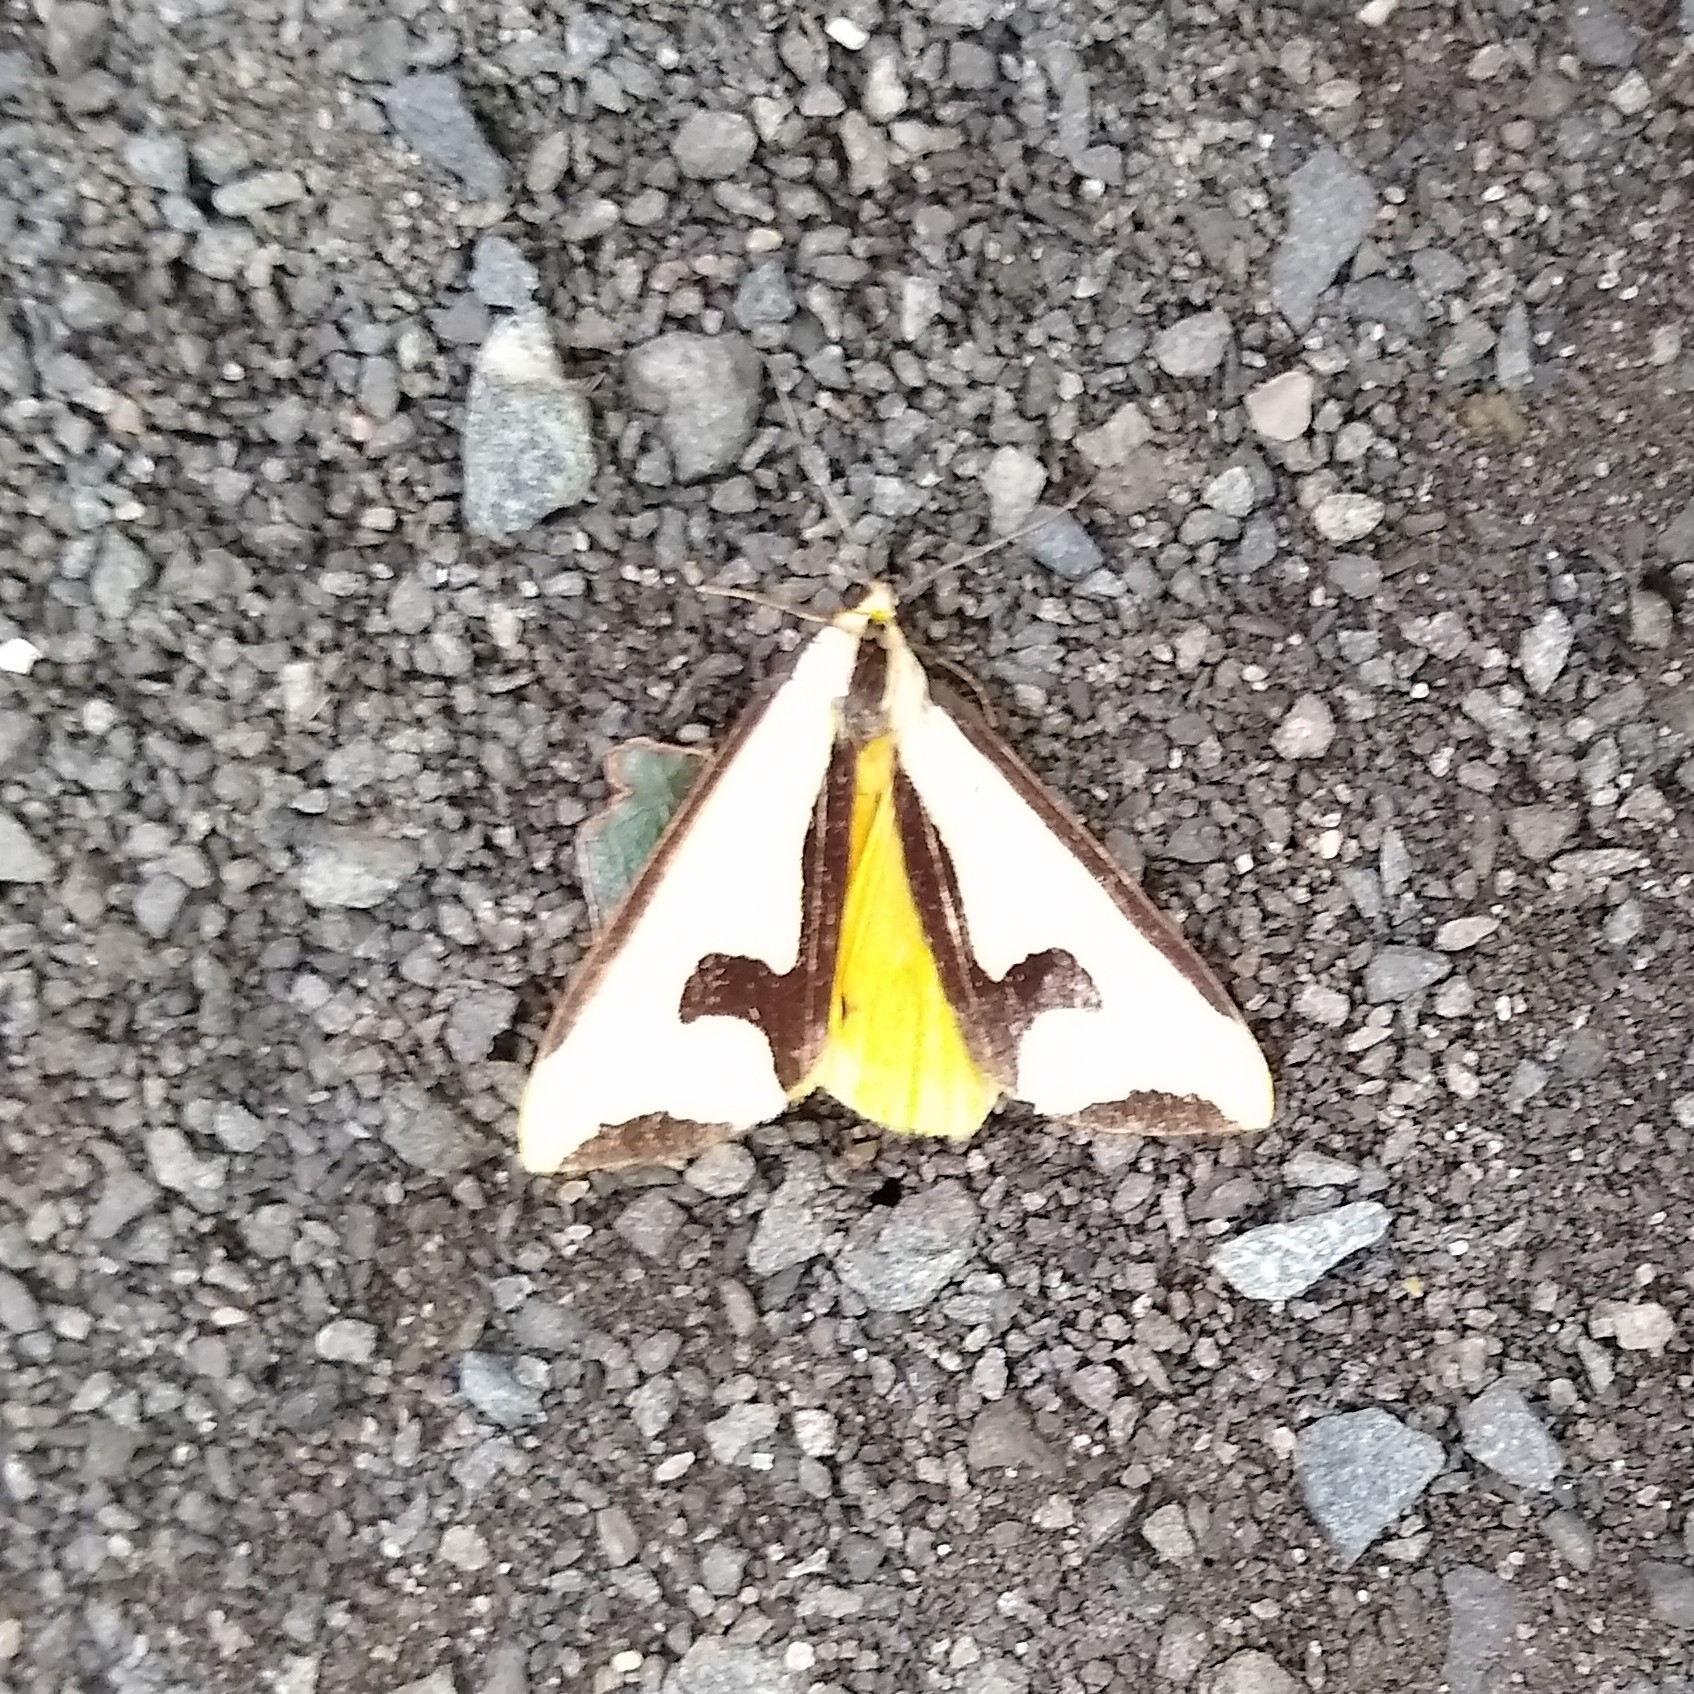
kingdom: Animalia
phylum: Arthropoda
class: Insecta
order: Lepidoptera
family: Erebidae
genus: Haploa
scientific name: Haploa clymene
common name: Clymene moth
